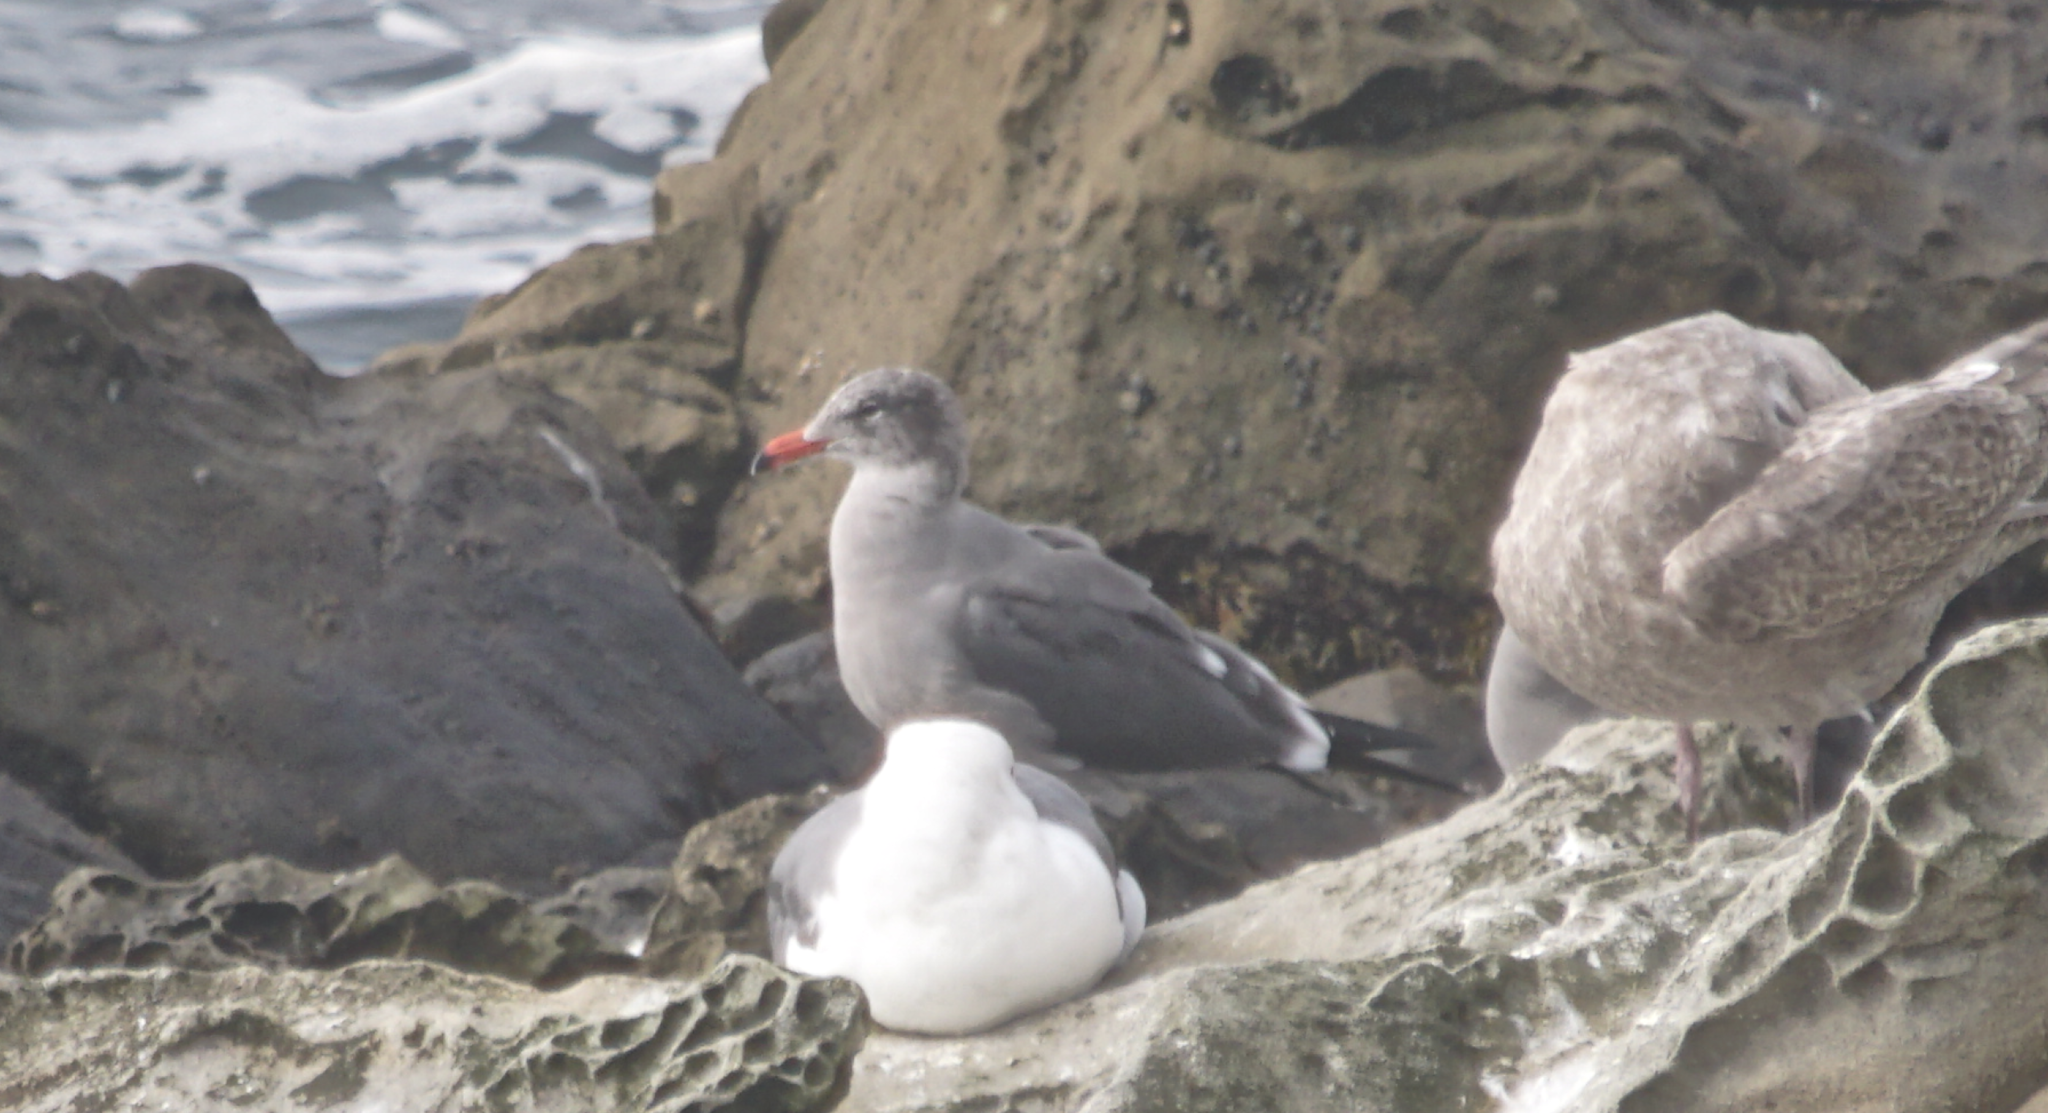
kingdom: Animalia
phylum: Chordata
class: Aves
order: Charadriiformes
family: Laridae
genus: Larus
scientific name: Larus heermanni
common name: Heermann's gull
